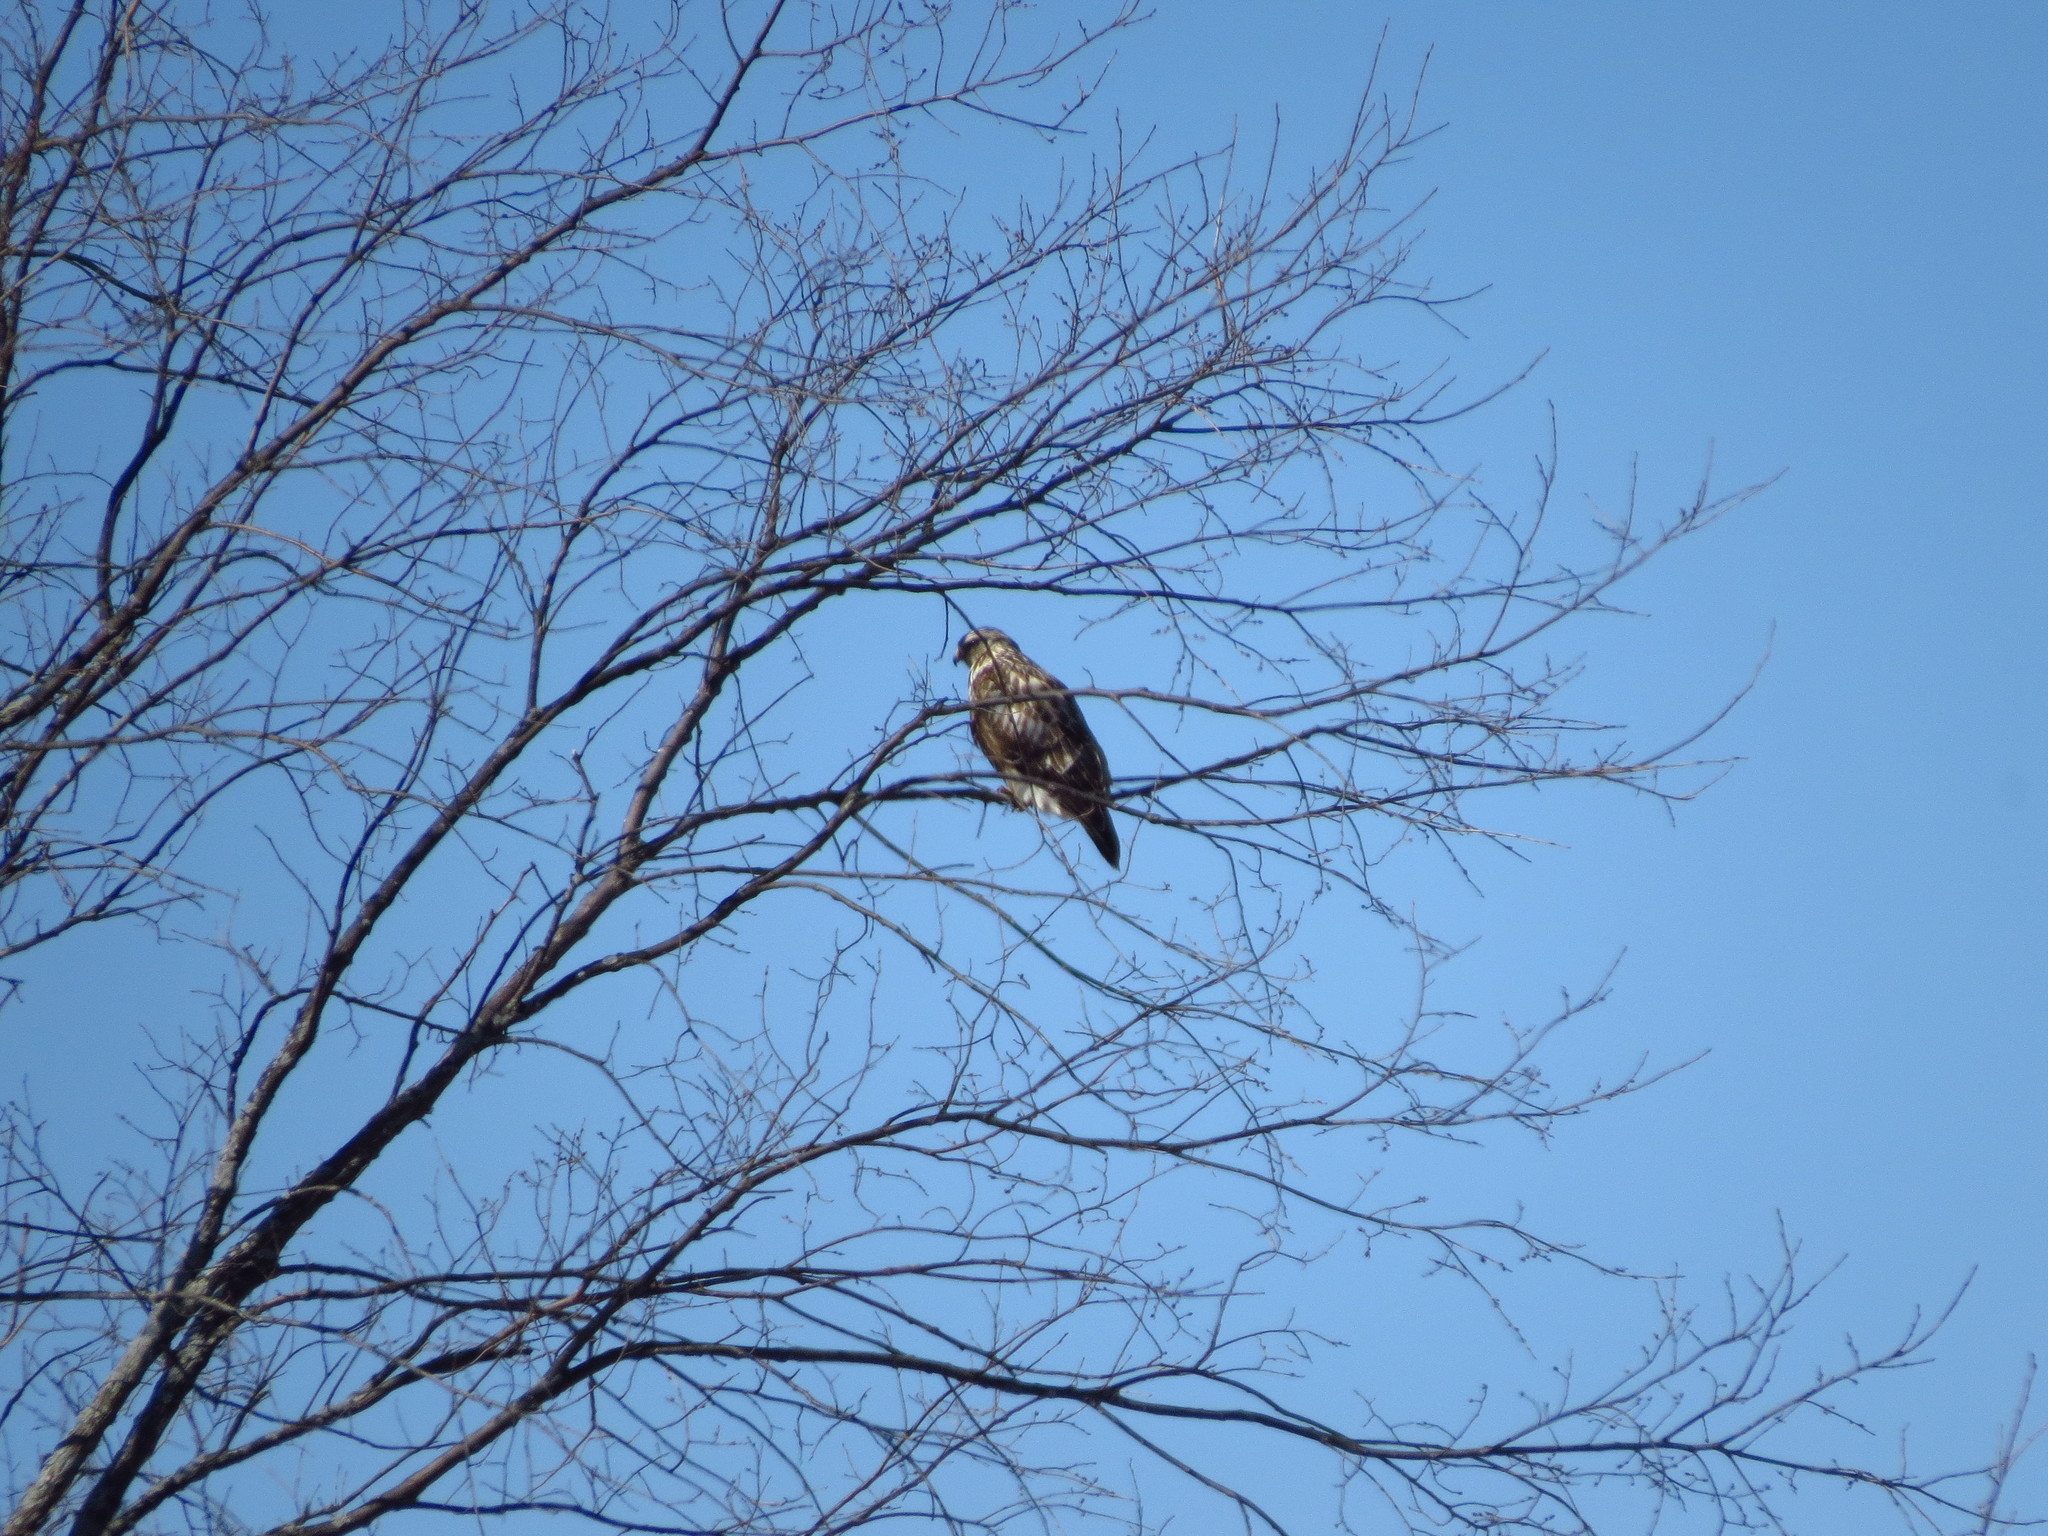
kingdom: Animalia
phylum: Chordata
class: Aves
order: Accipitriformes
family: Accipitridae
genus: Buteo
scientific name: Buteo lagopus
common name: Rough-legged buzzard
